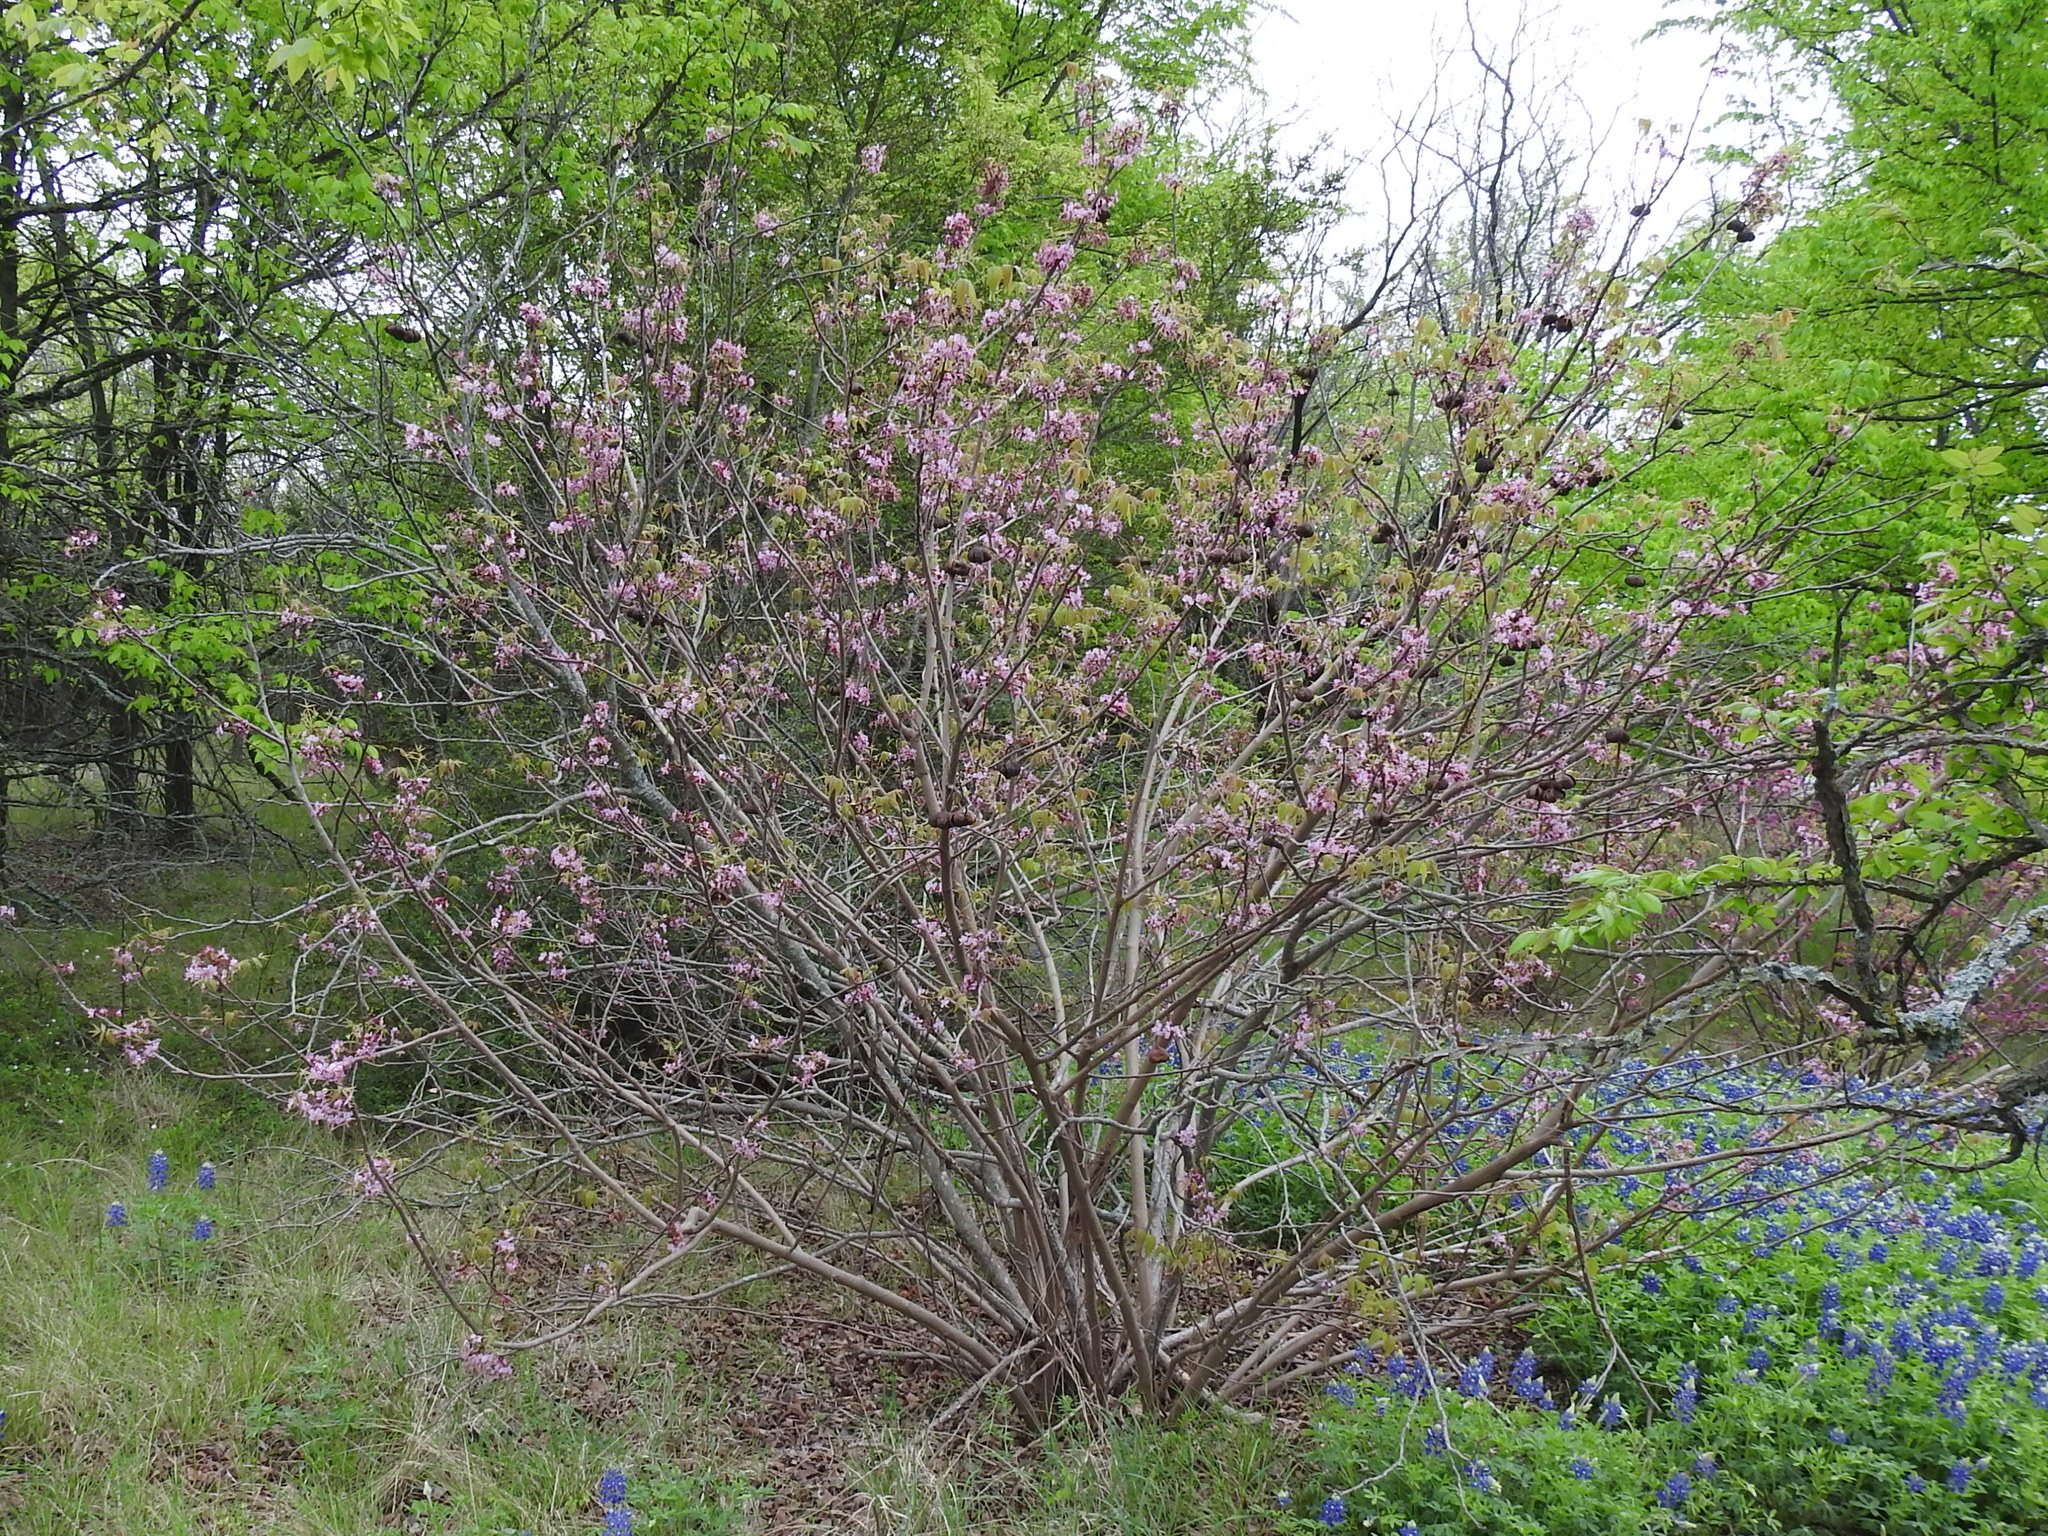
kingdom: Plantae
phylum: Tracheophyta
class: Magnoliopsida
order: Sapindales
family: Sapindaceae
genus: Ungnadia
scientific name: Ungnadia speciosa
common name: Texas-buckeye
